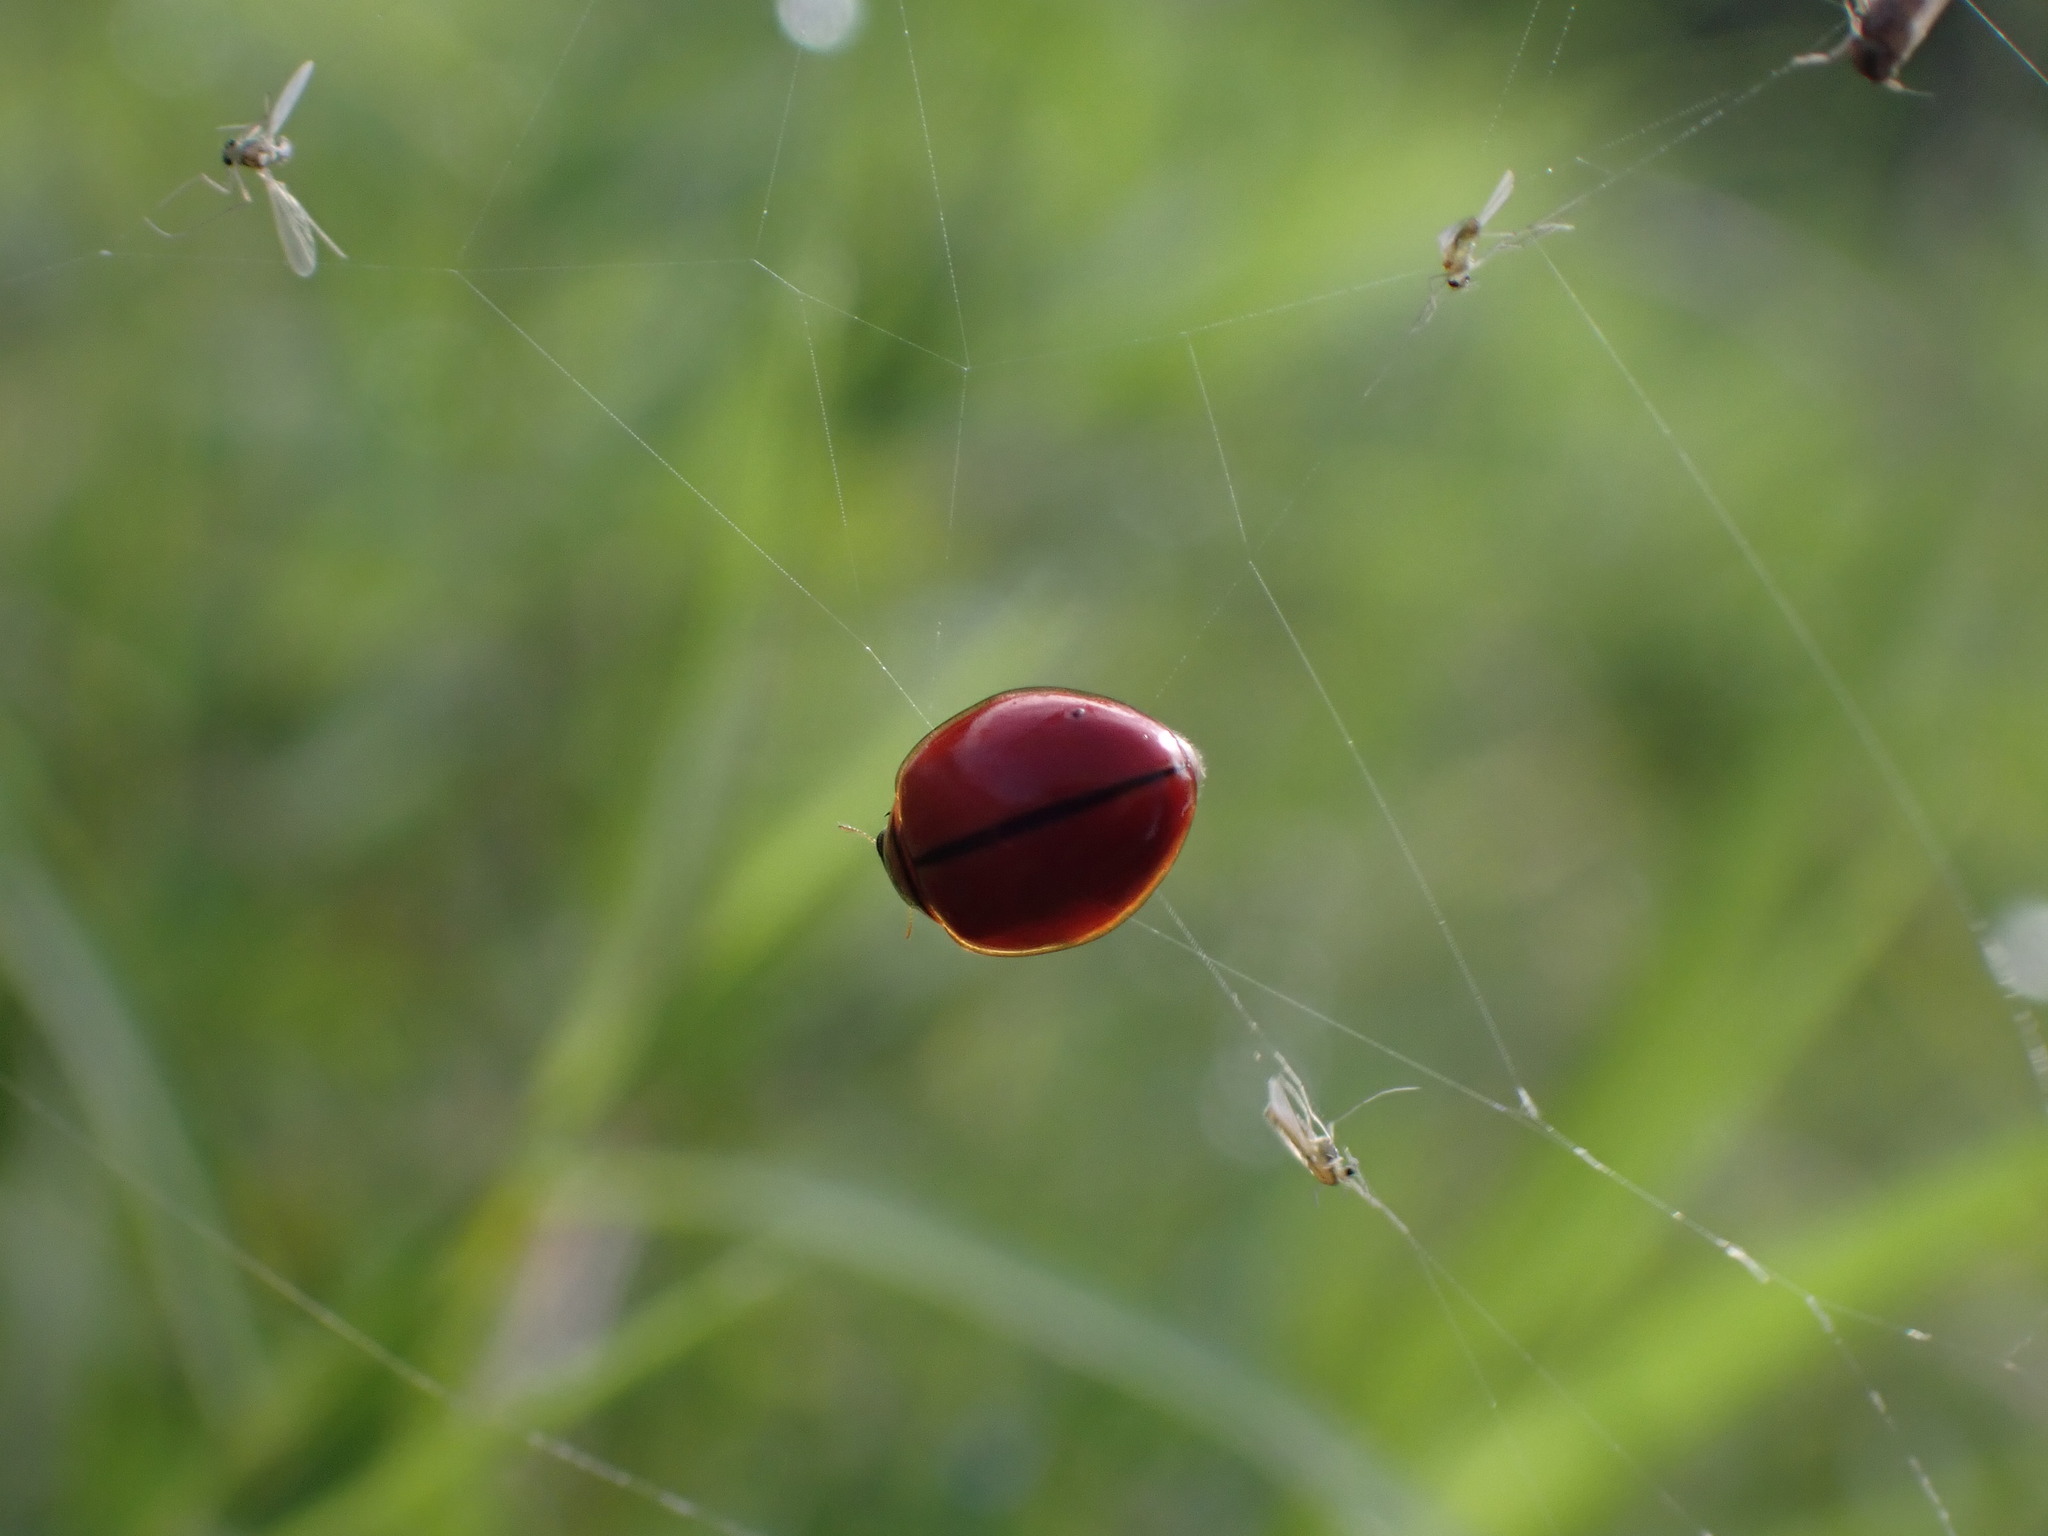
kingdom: Animalia
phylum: Arthropoda
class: Insecta
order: Coleoptera
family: Coccinellidae
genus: Micraspis
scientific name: Micraspis discolor
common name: Lady beetle
